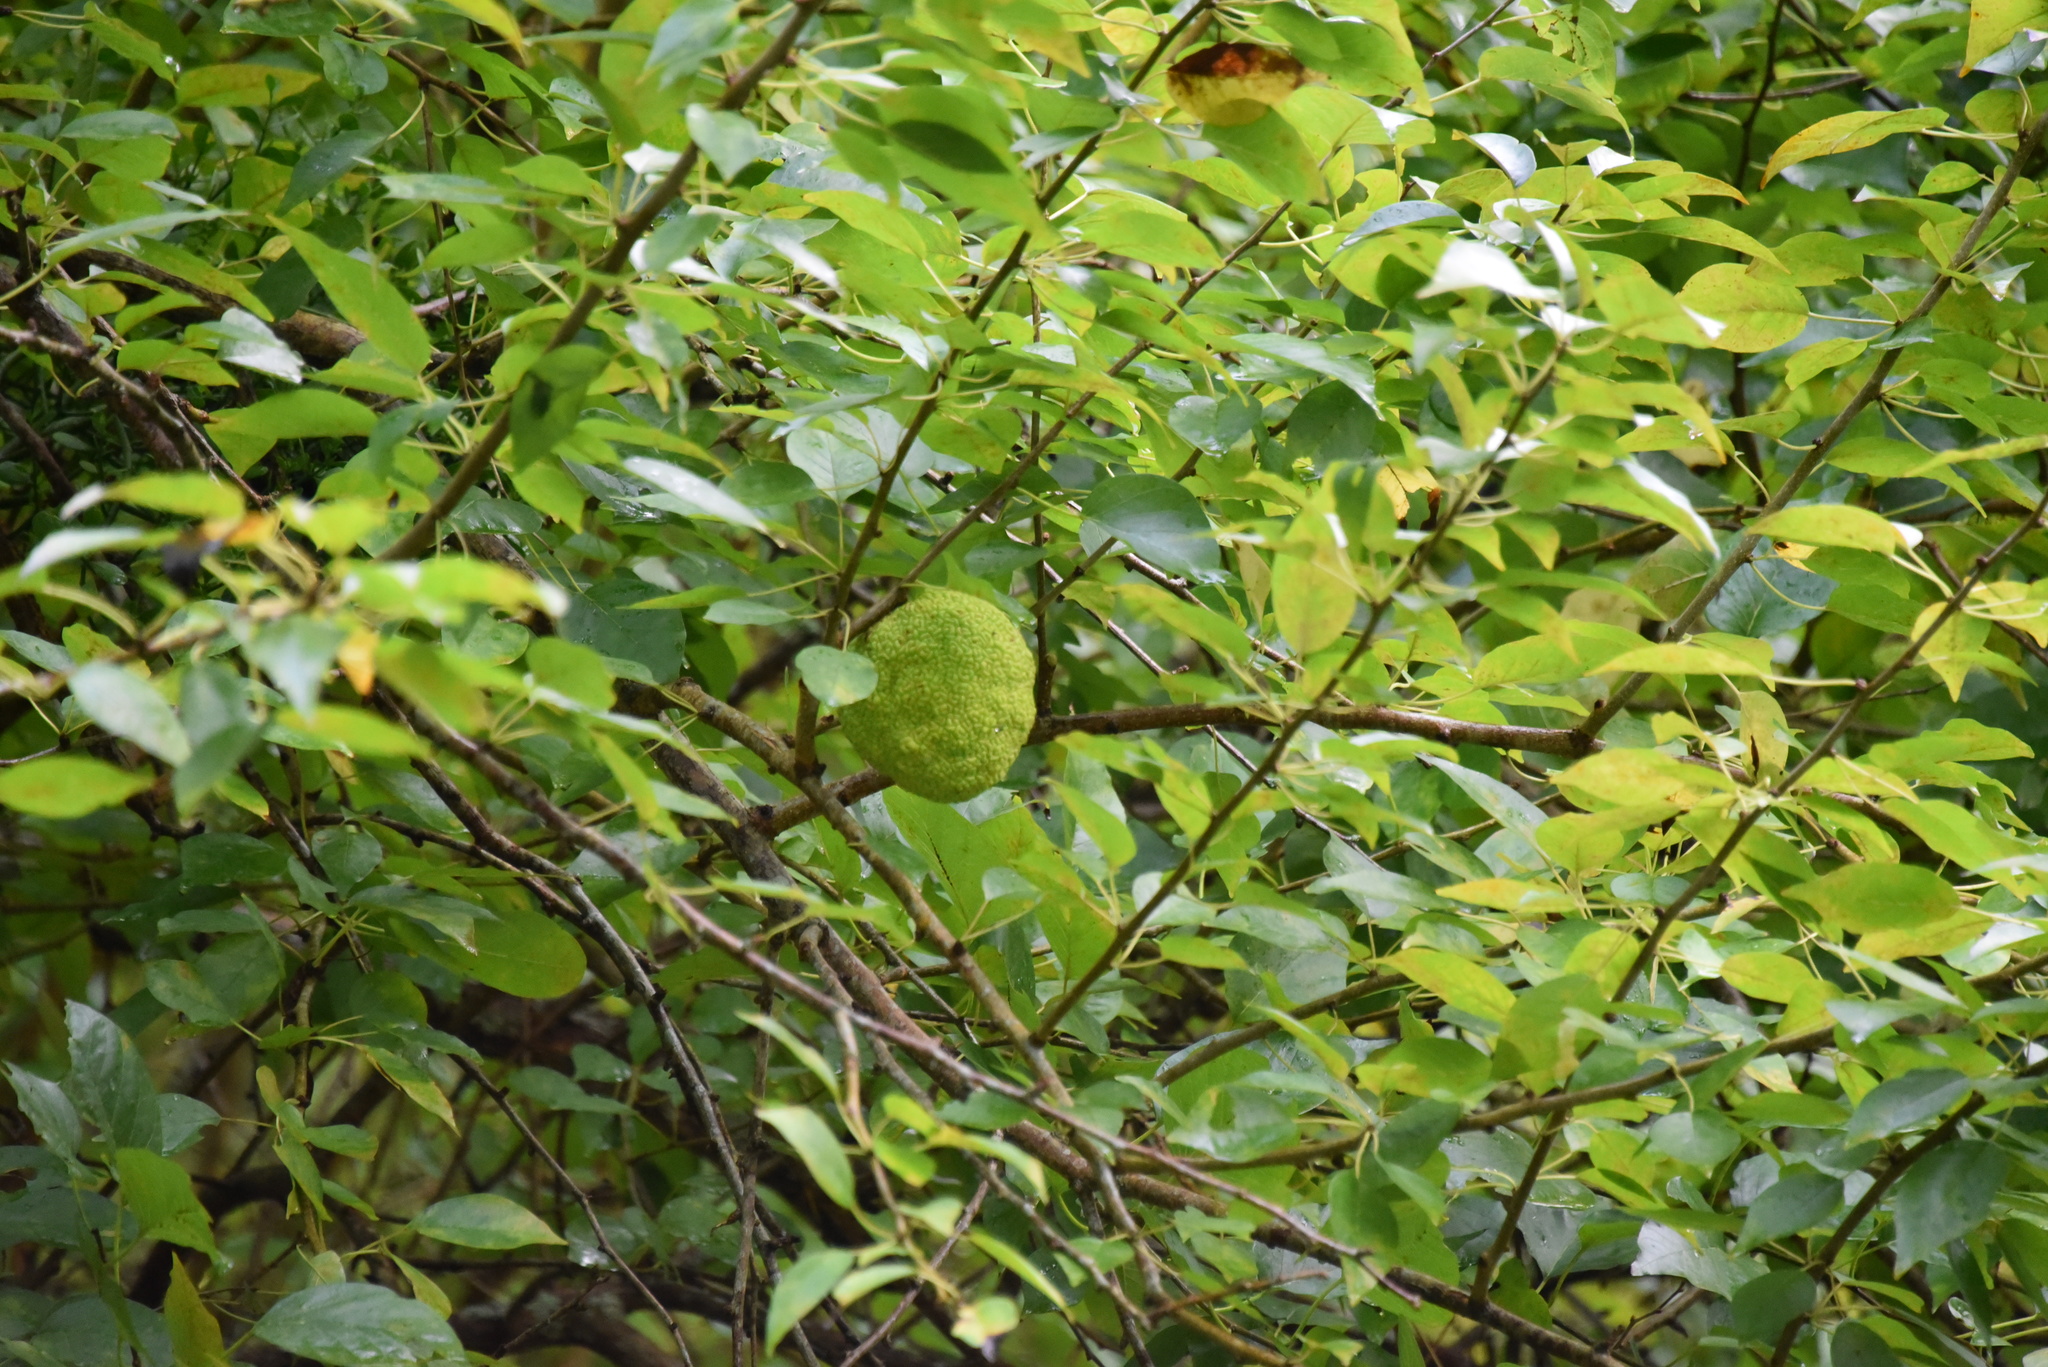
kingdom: Plantae
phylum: Tracheophyta
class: Magnoliopsida
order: Rosales
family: Moraceae
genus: Maclura
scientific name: Maclura pomifera
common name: Osage-orange
